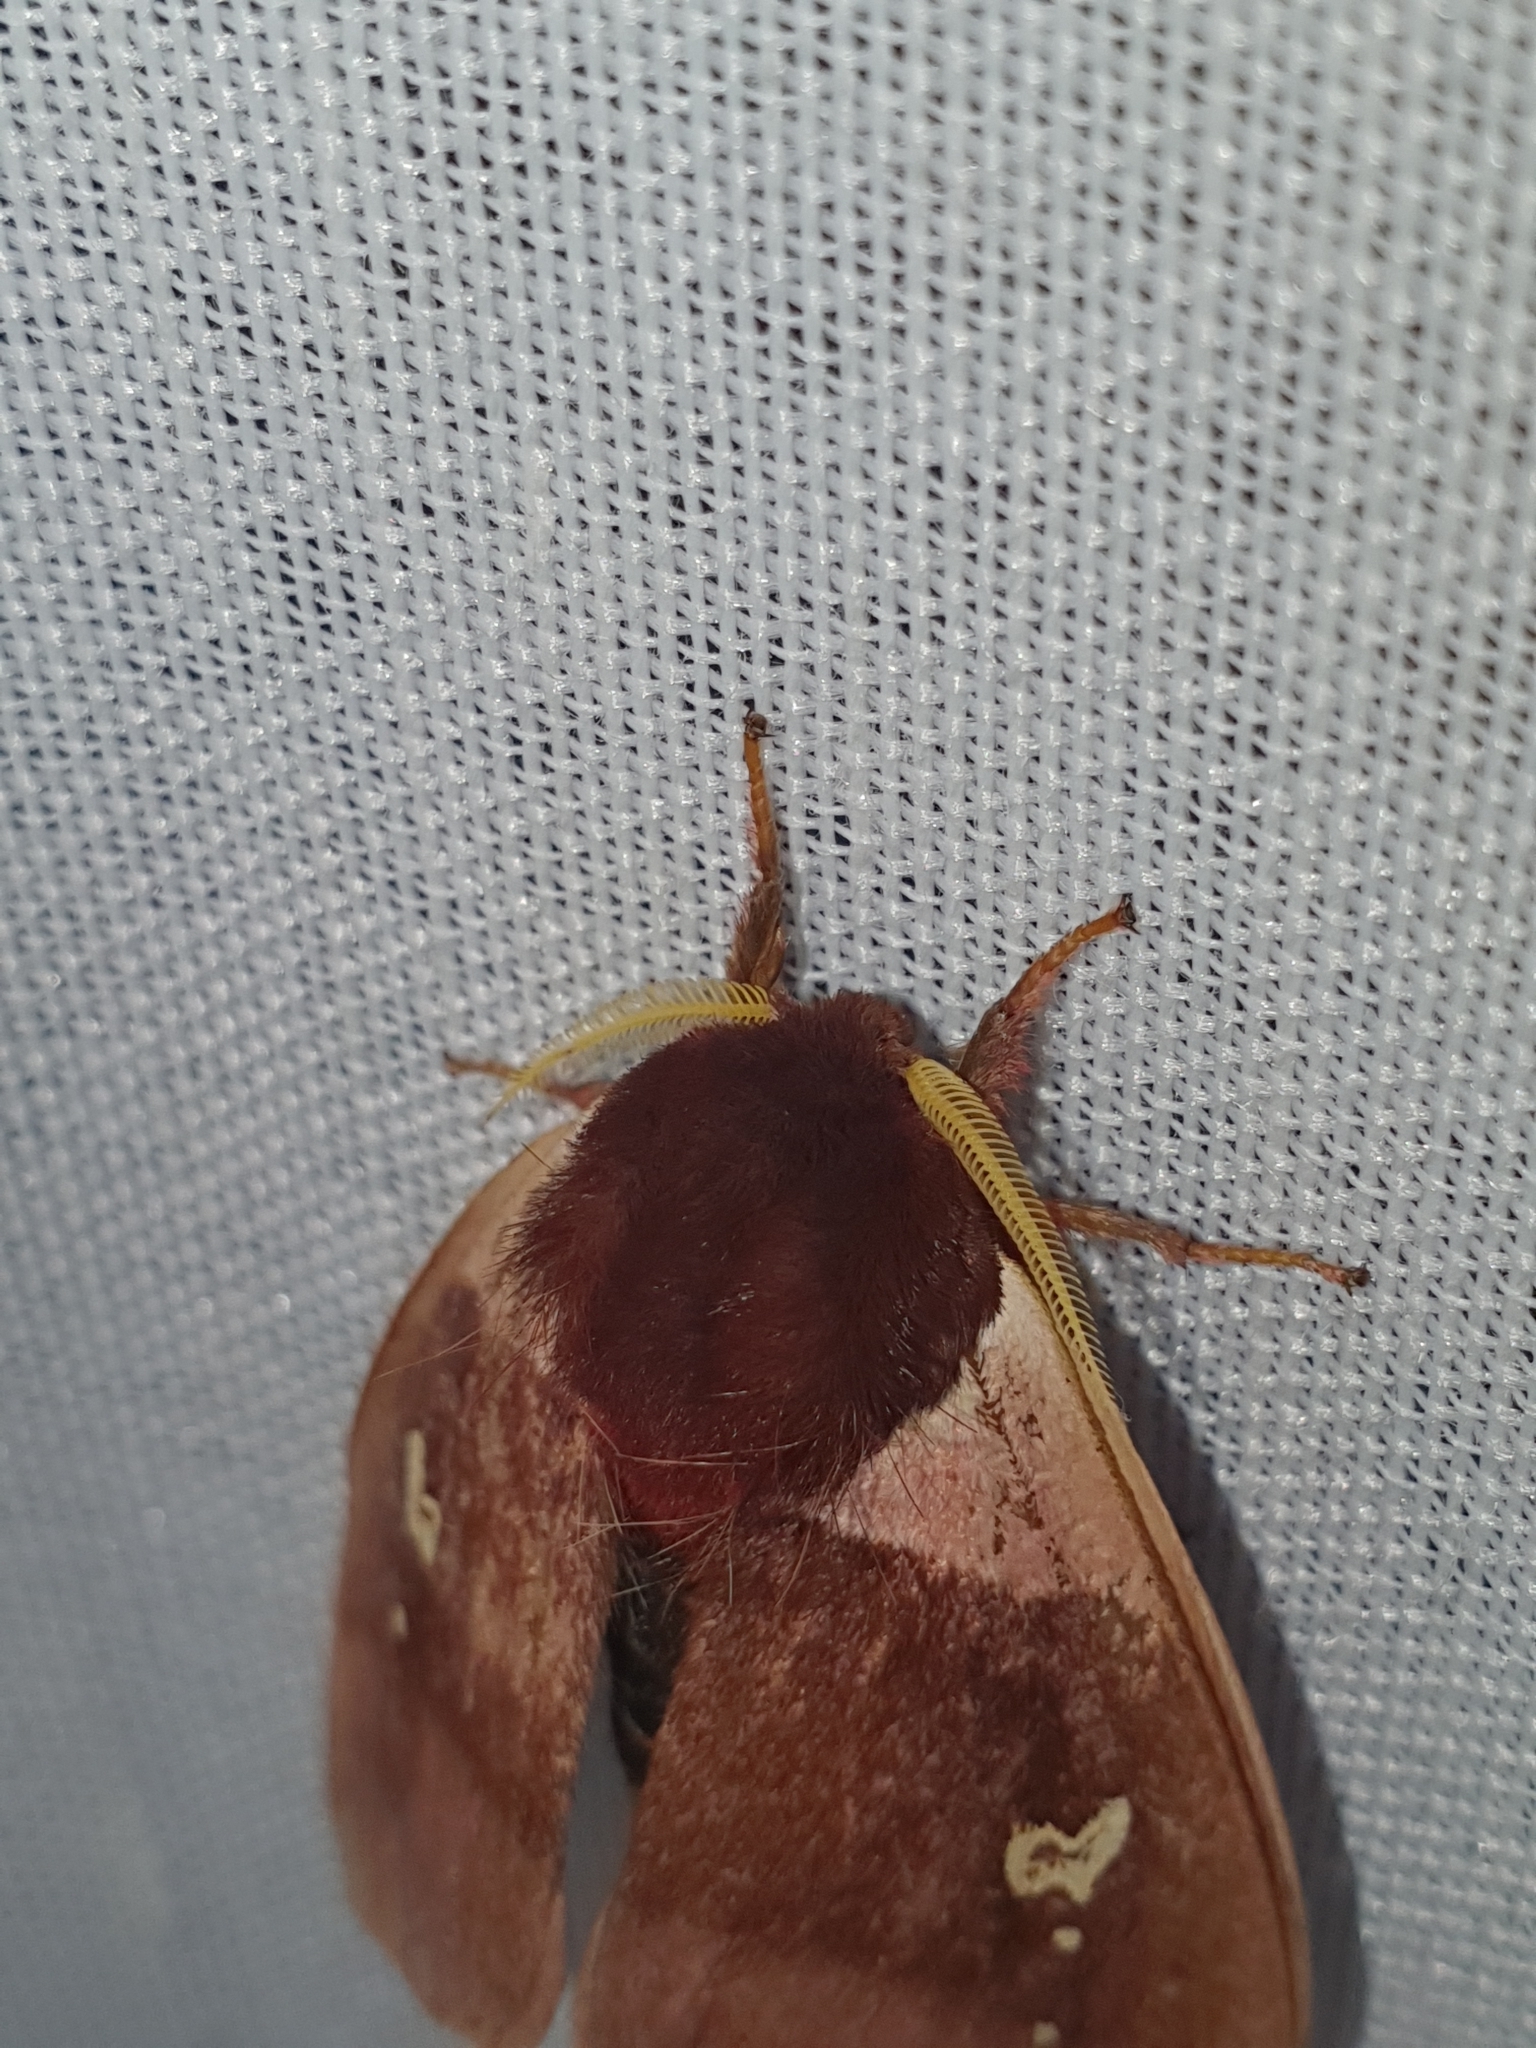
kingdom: Animalia
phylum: Arthropoda
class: Insecta
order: Lepidoptera
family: Saturniidae
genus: Dirphiopsis
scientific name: Dirphiopsis trisignata
